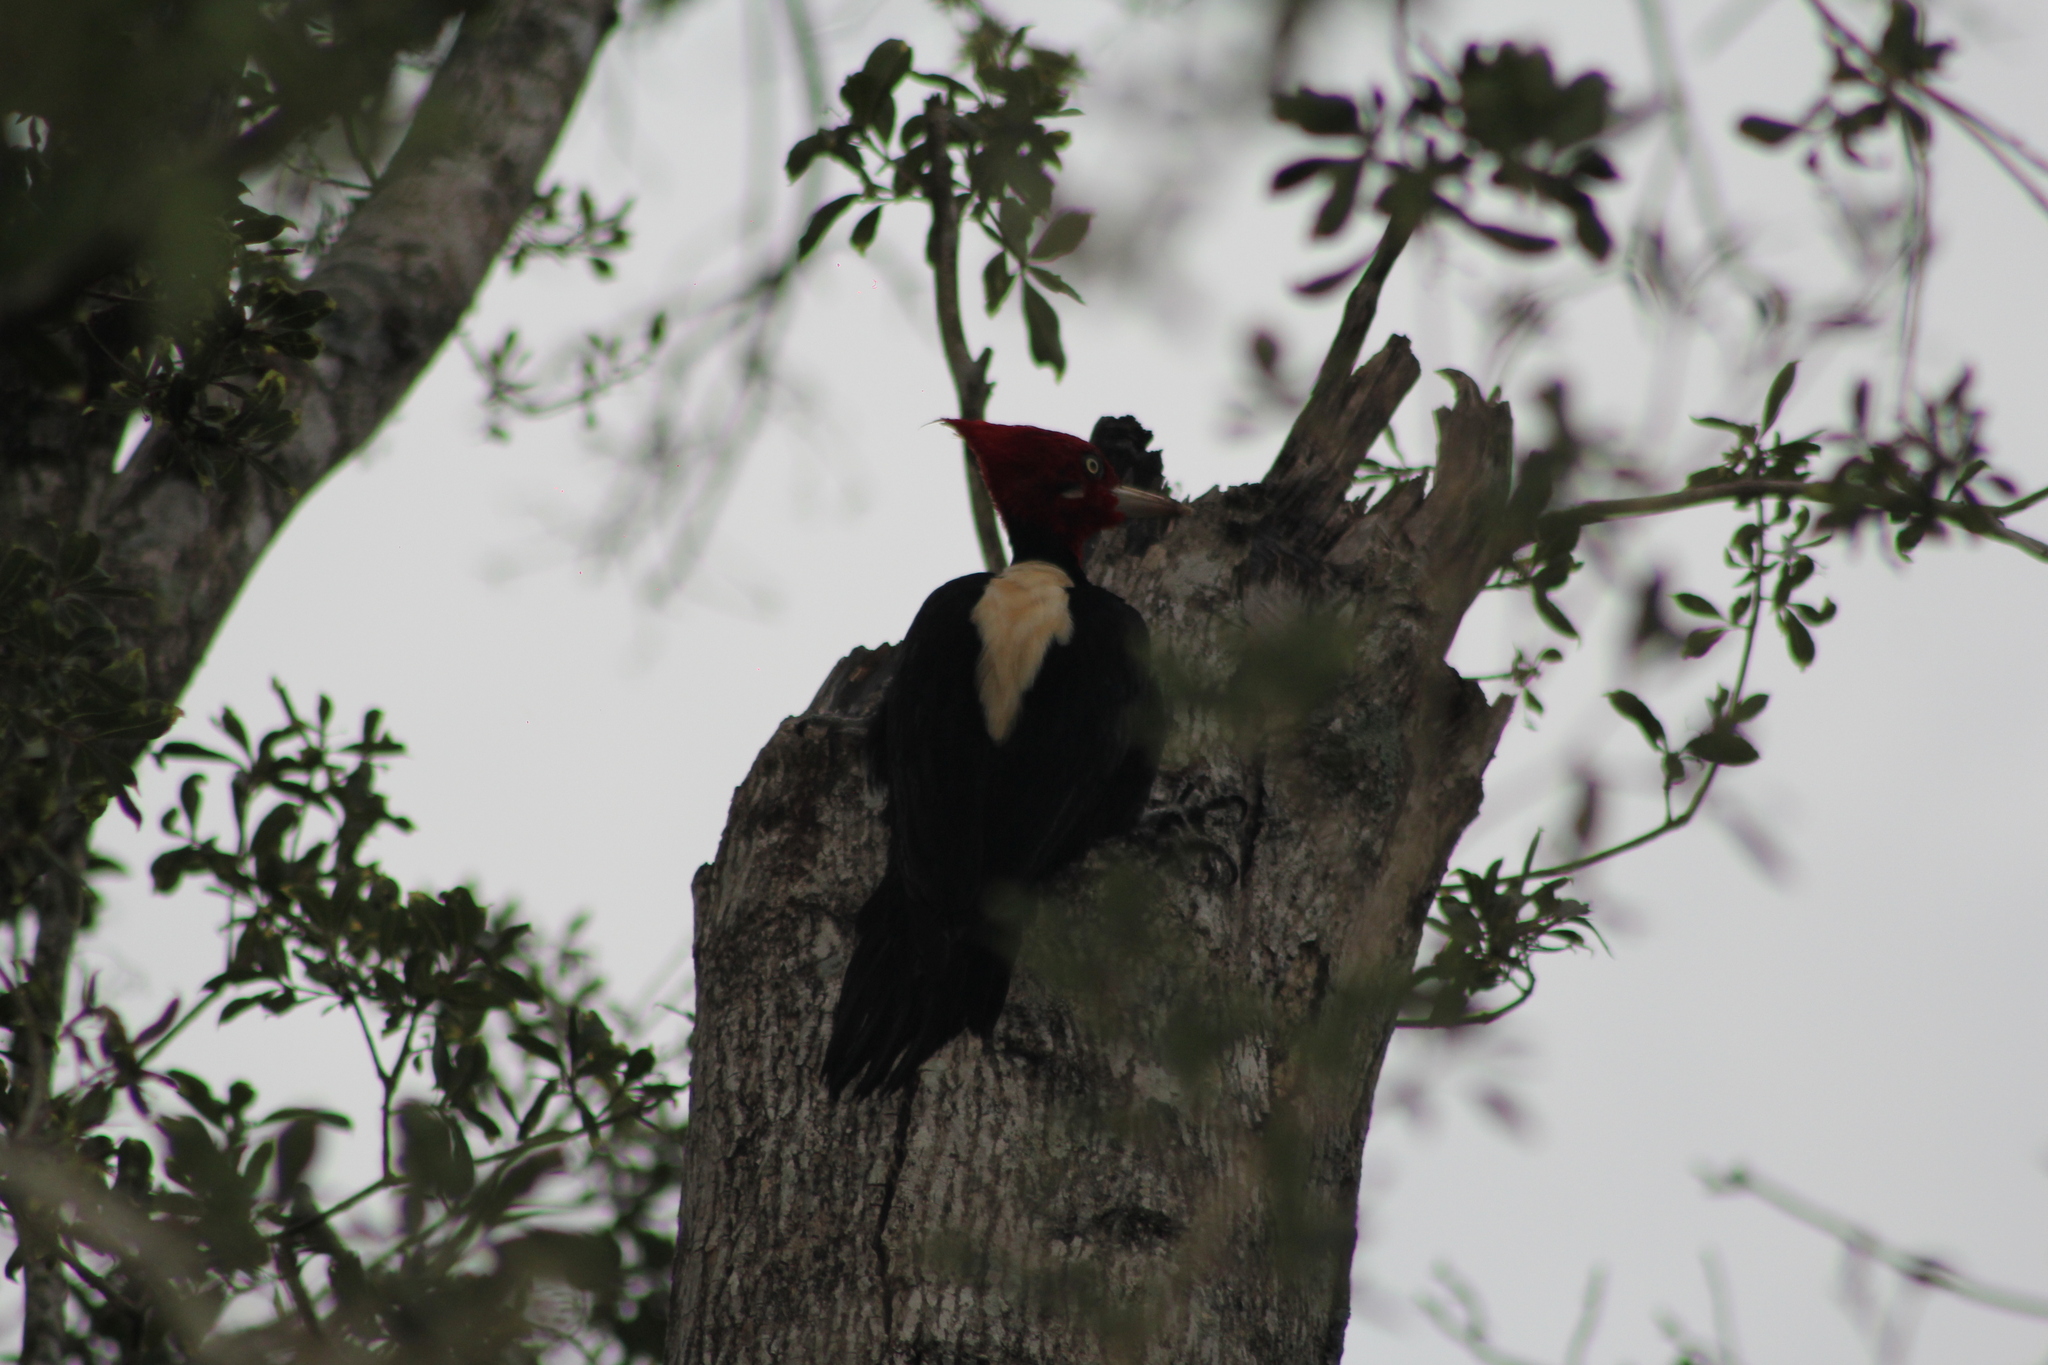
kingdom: Animalia
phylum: Chordata
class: Aves
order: Piciformes
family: Picidae
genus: Campephilus
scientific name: Campephilus leucopogon
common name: Cream-backed woodpecker
